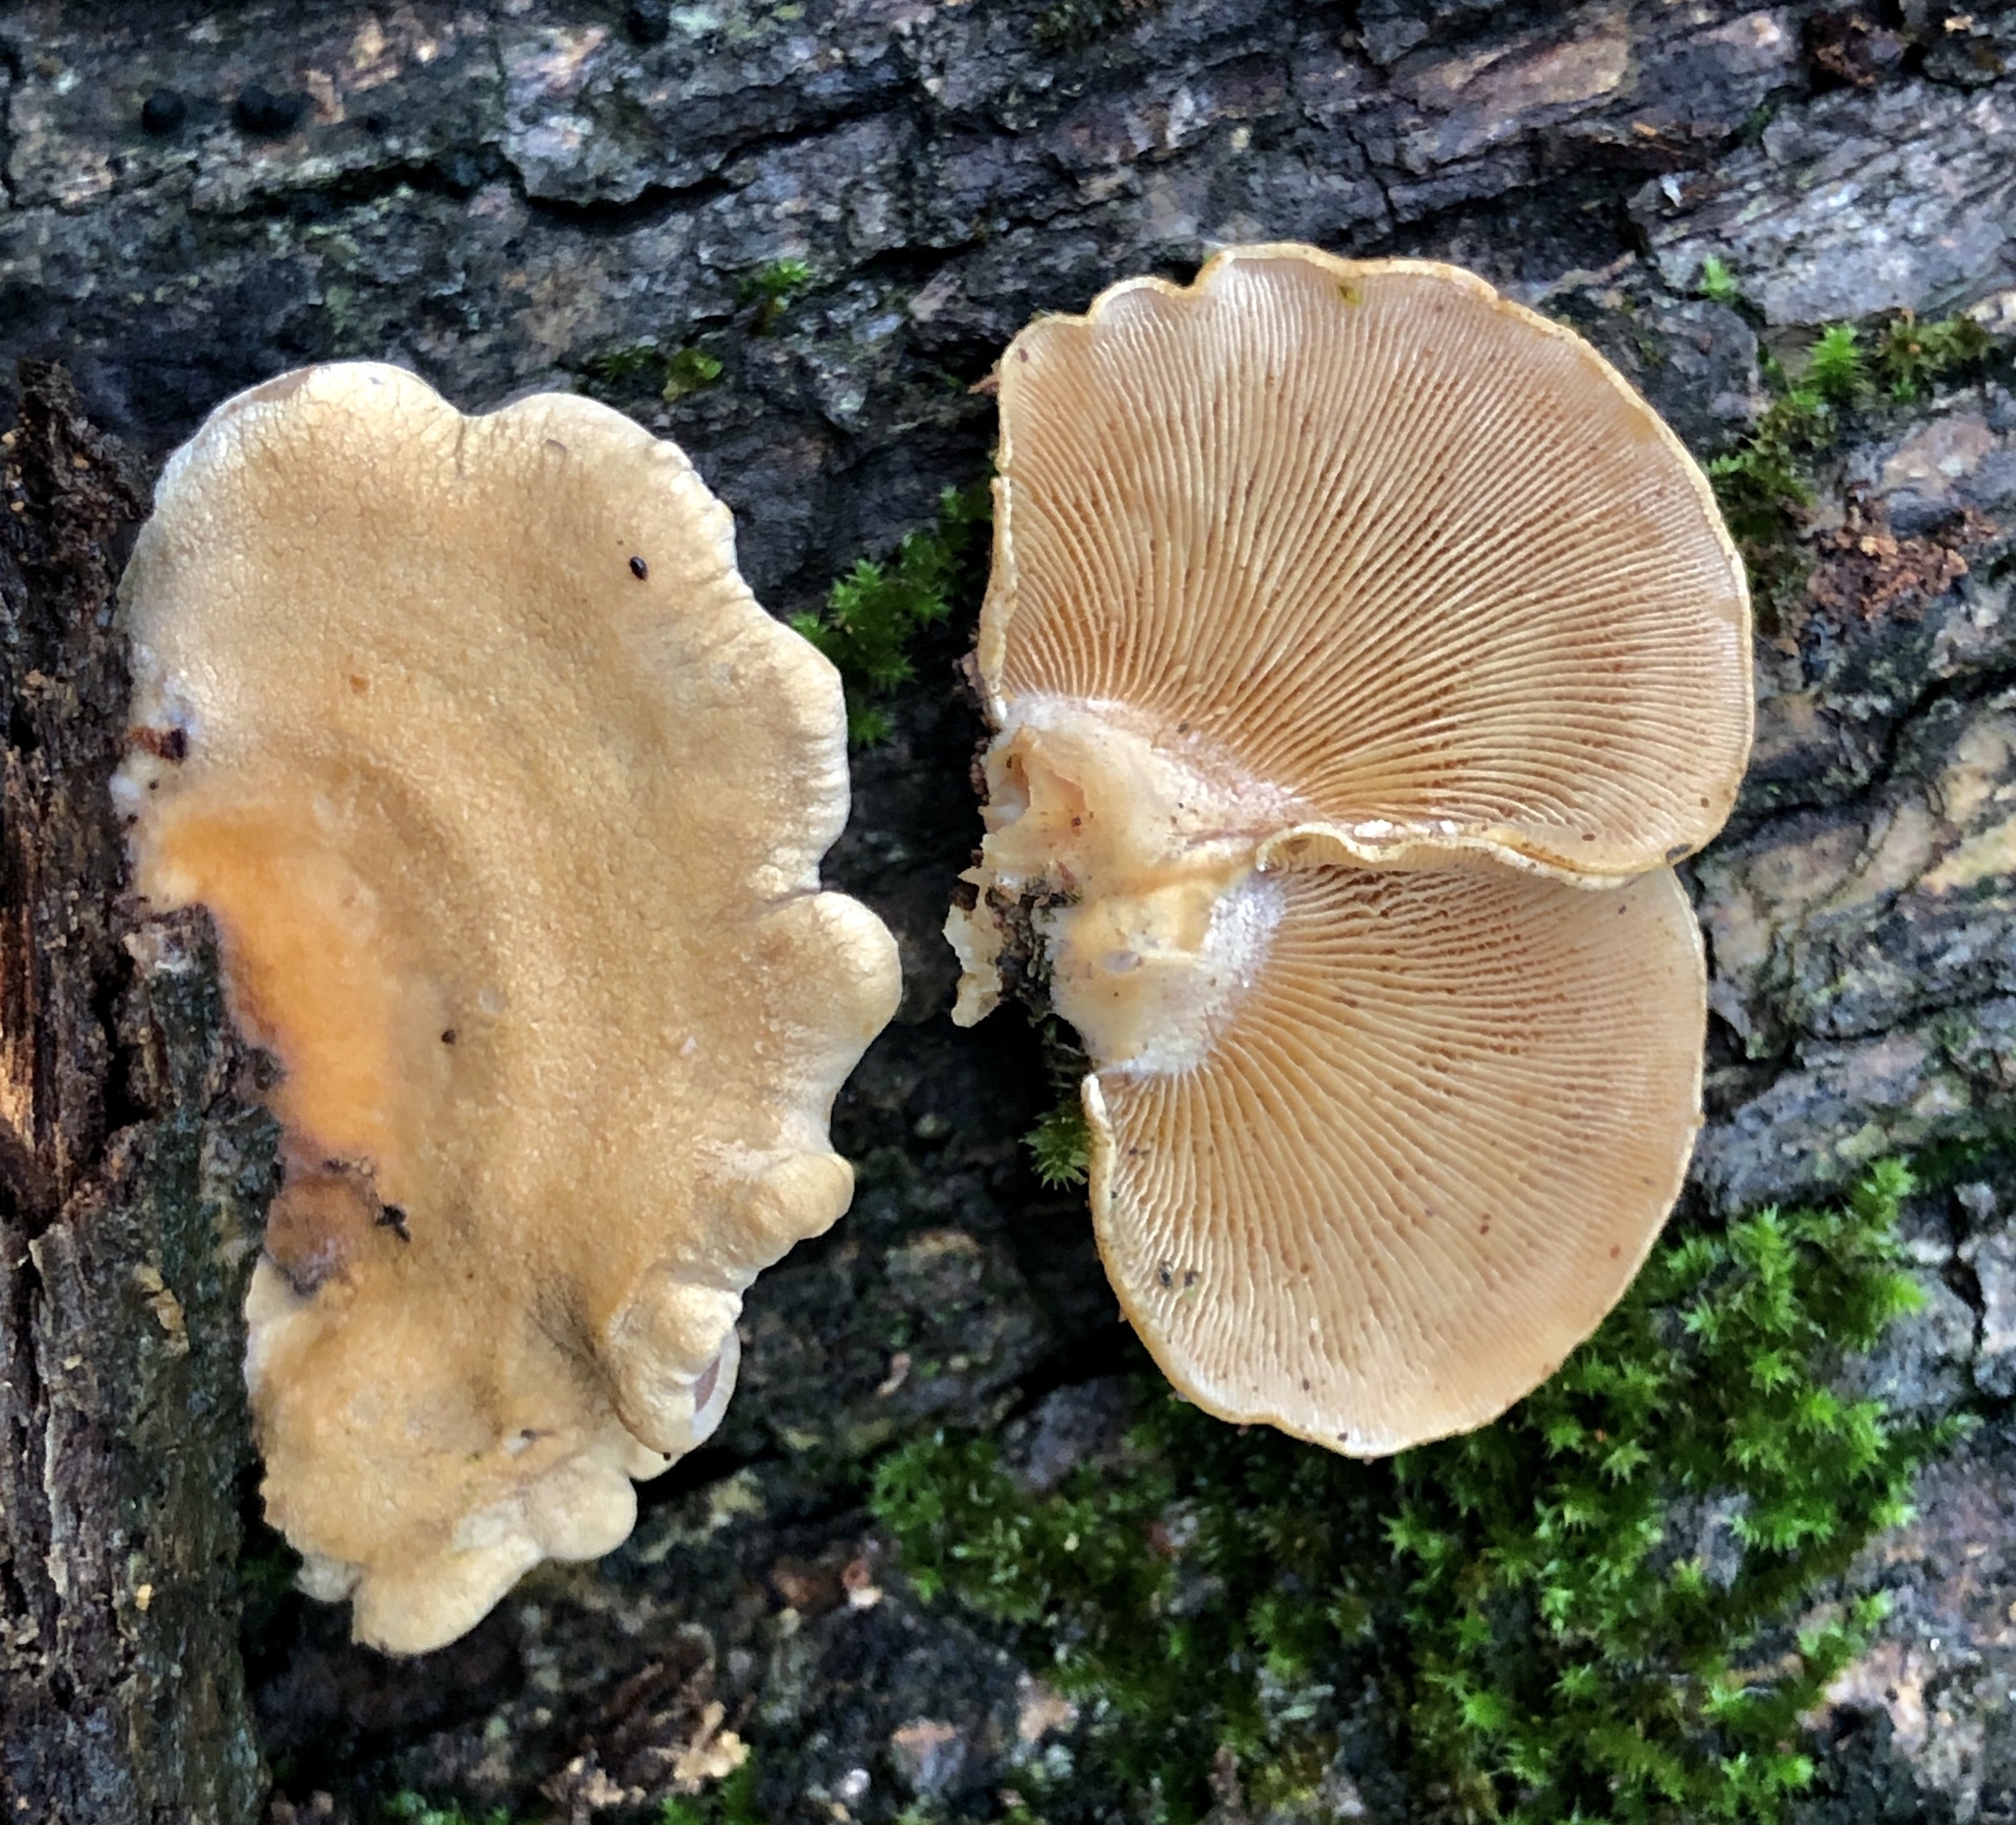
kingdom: Fungi
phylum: Basidiomycota
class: Agaricomycetes
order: Agaricales
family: Mycenaceae
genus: Panellus
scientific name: Panellus stipticus
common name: Bitter oysterling
